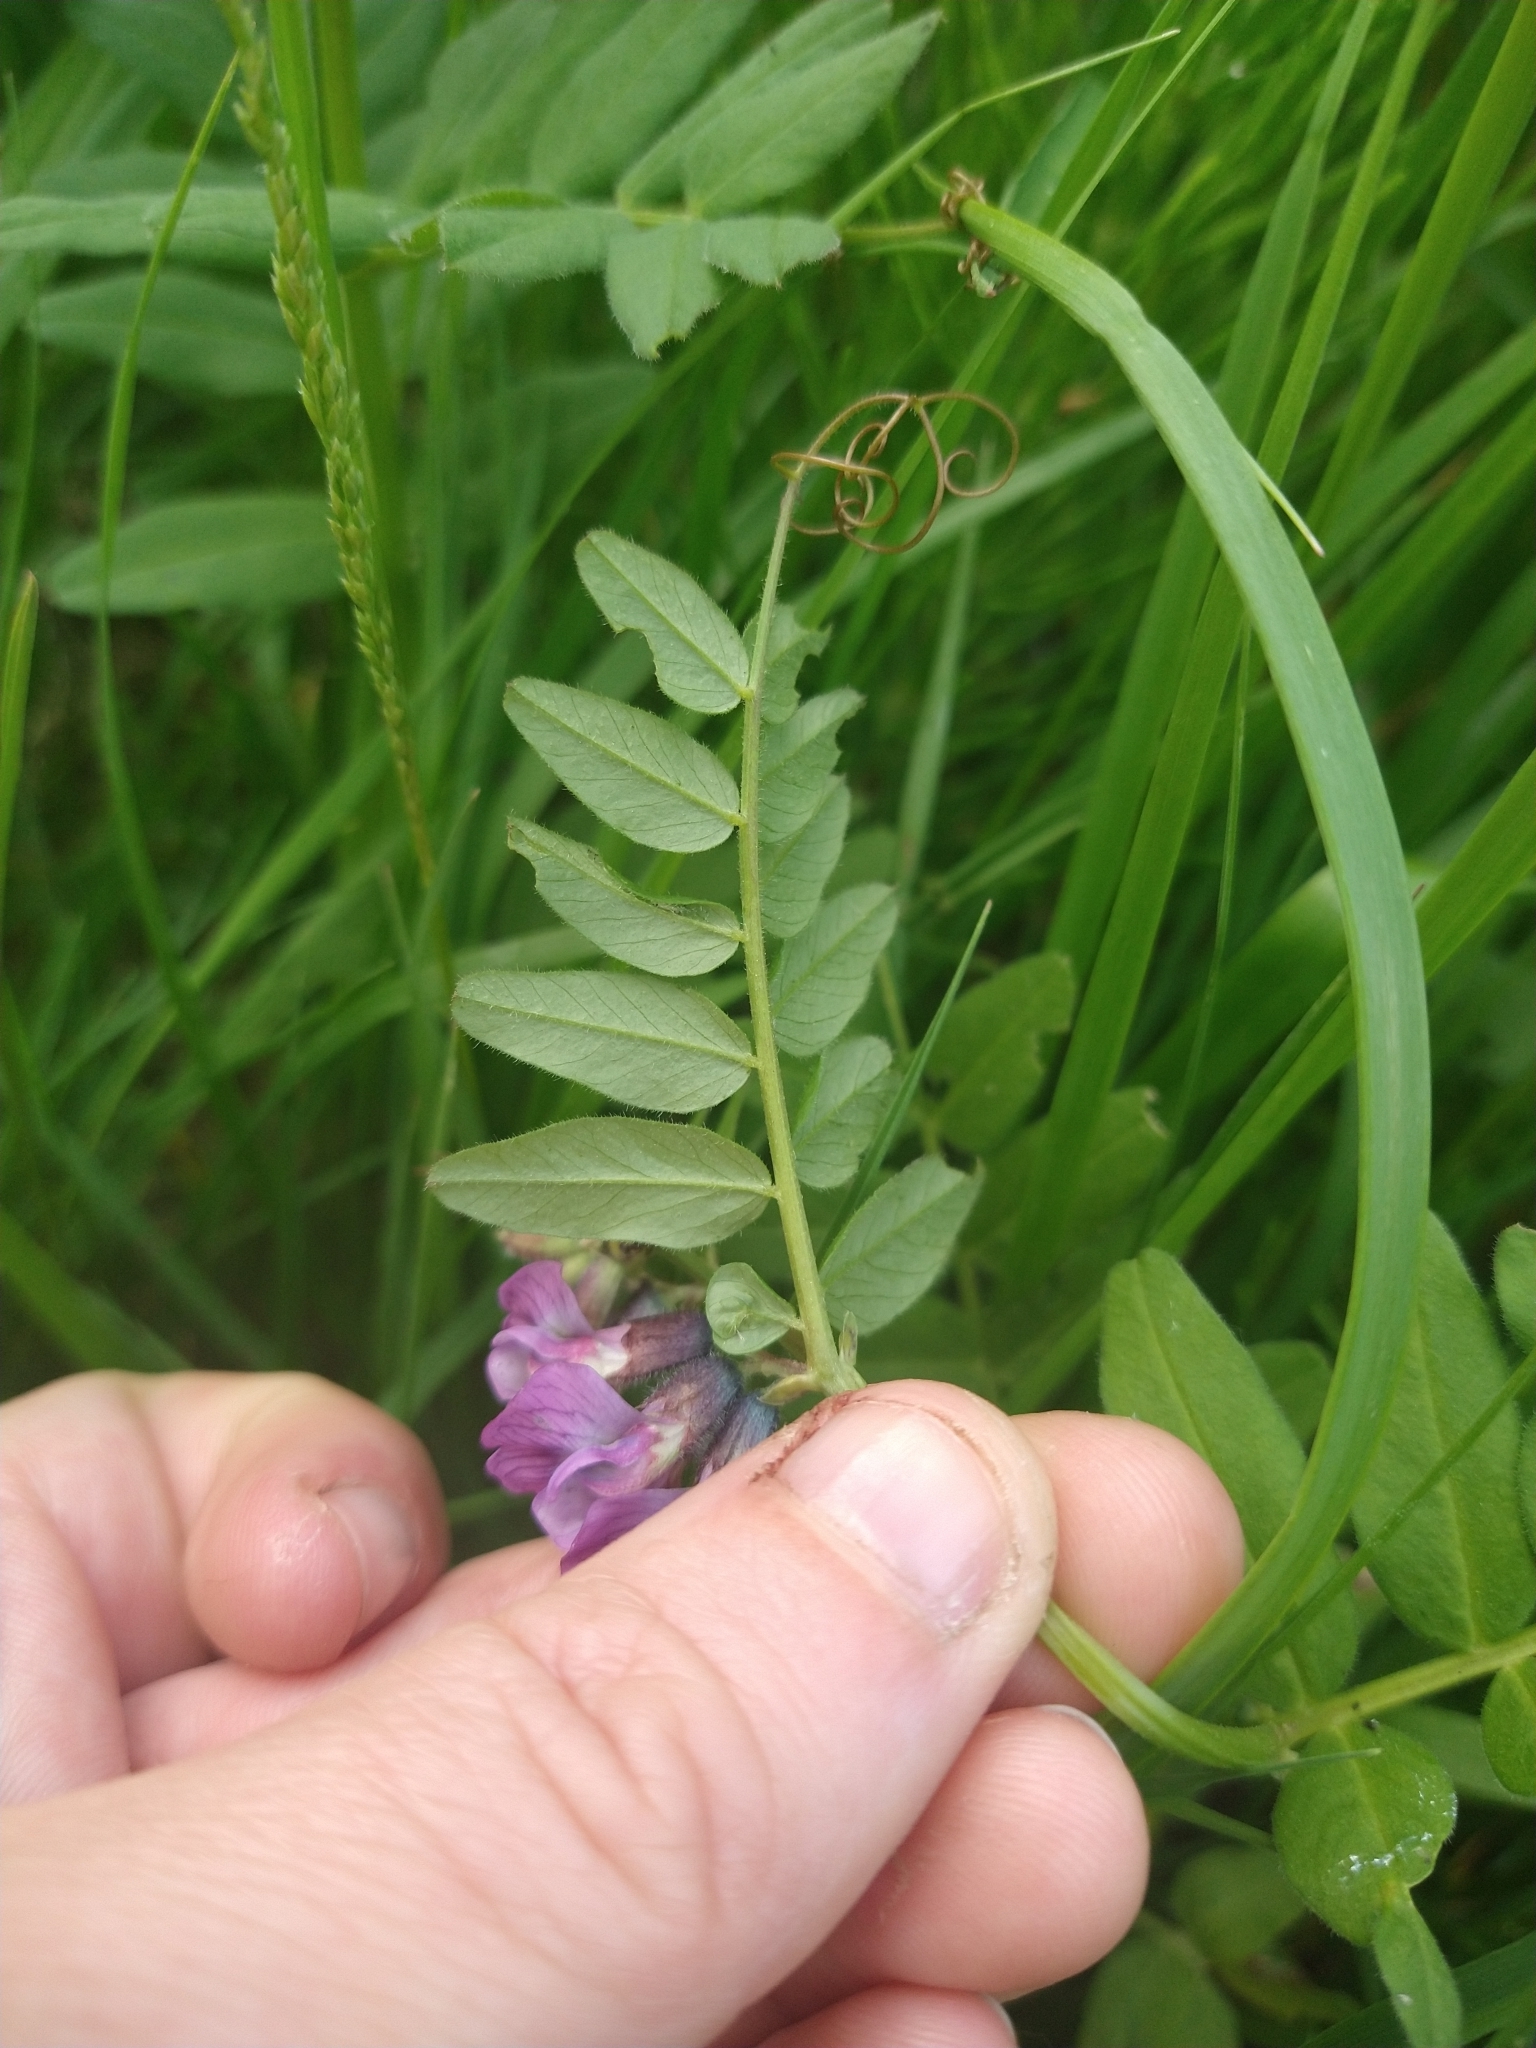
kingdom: Plantae
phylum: Tracheophyta
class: Magnoliopsida
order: Fabales
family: Fabaceae
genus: Vicia
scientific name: Vicia sepium
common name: Bush vetch
